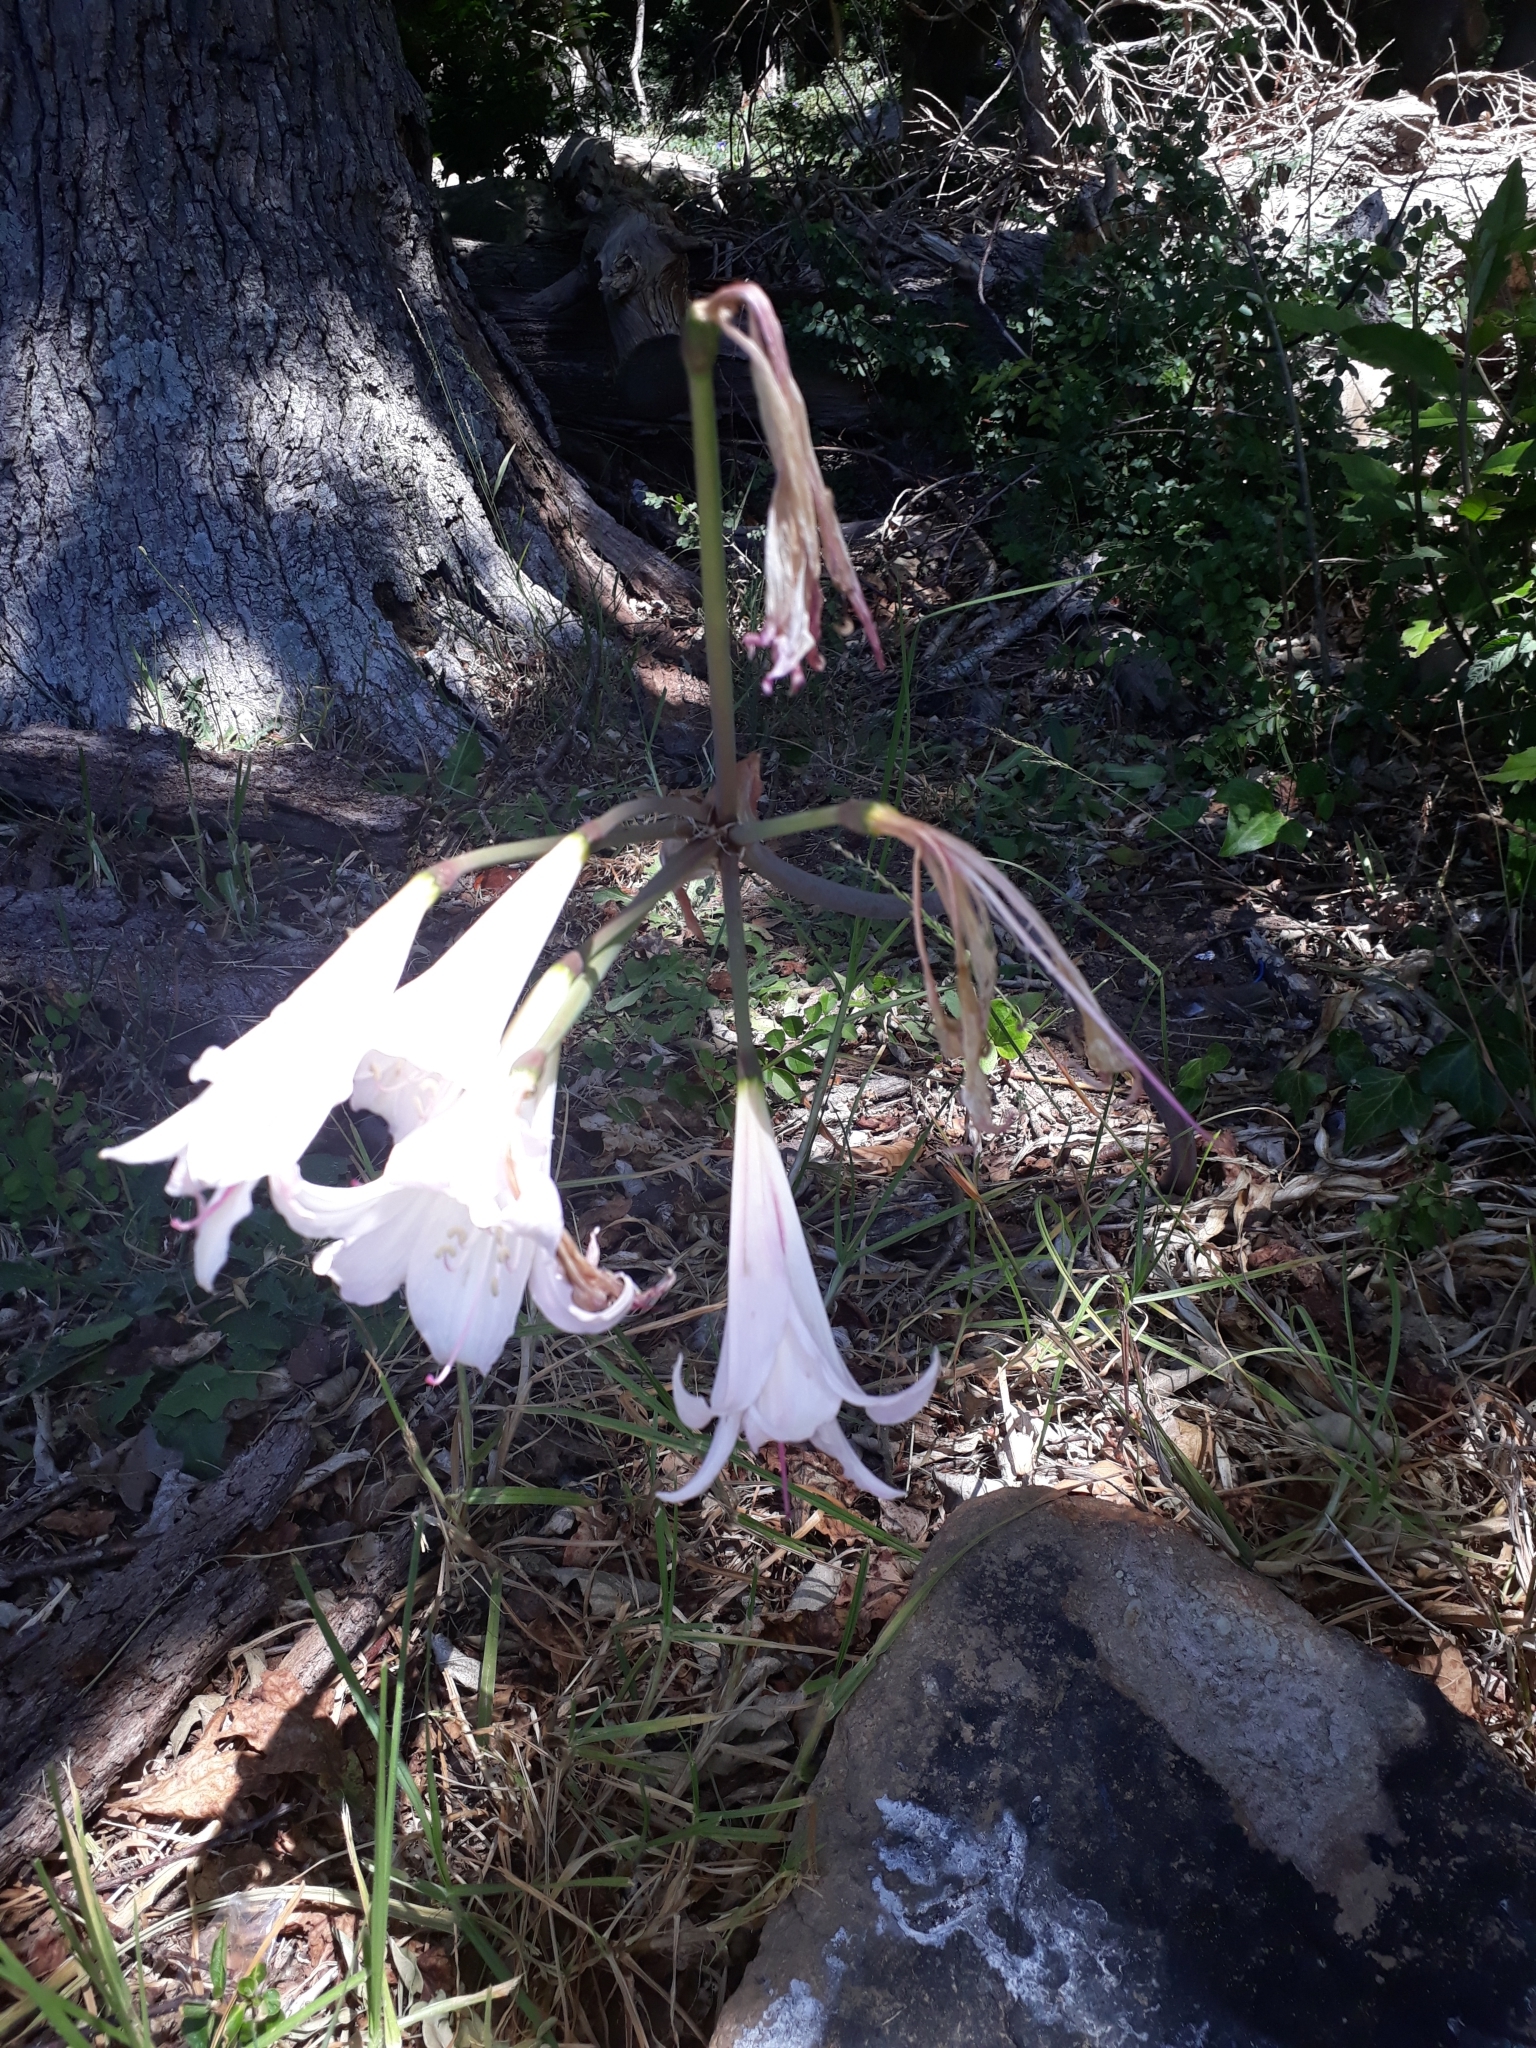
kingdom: Plantae
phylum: Tracheophyta
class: Liliopsida
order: Asparagales
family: Amaryllidaceae
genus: Amaryllis
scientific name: Amaryllis belladonna
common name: Jersey lily
